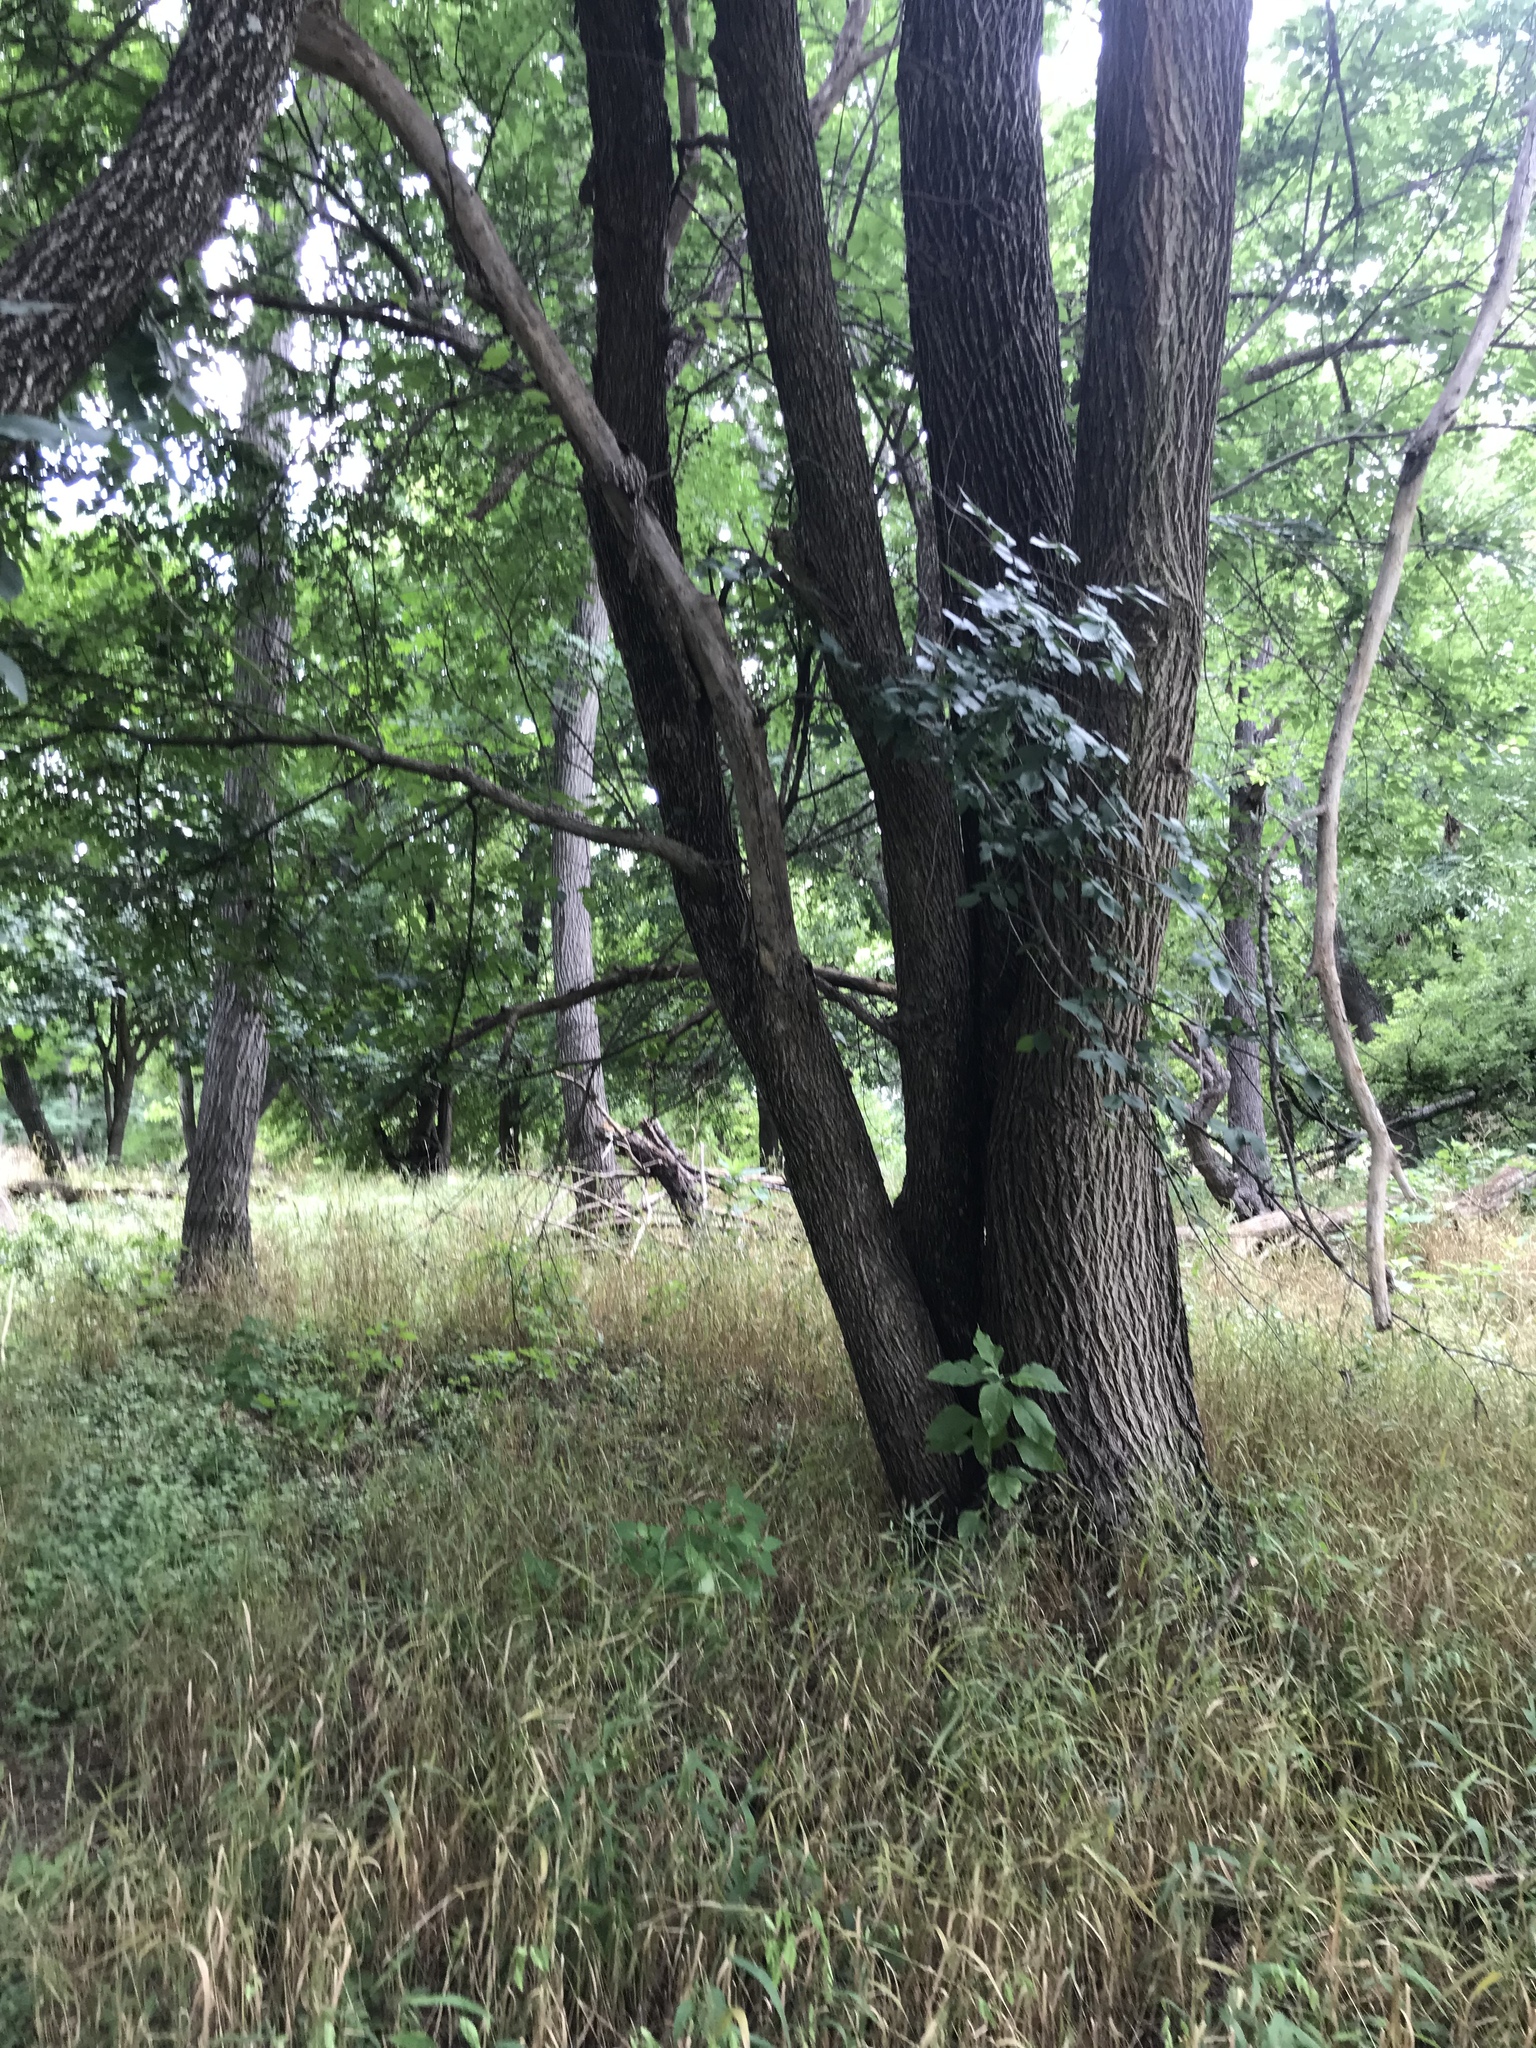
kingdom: Plantae
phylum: Tracheophyta
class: Magnoliopsida
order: Rosales
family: Ulmaceae
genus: Ulmus
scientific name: Ulmus americana
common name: American elm
